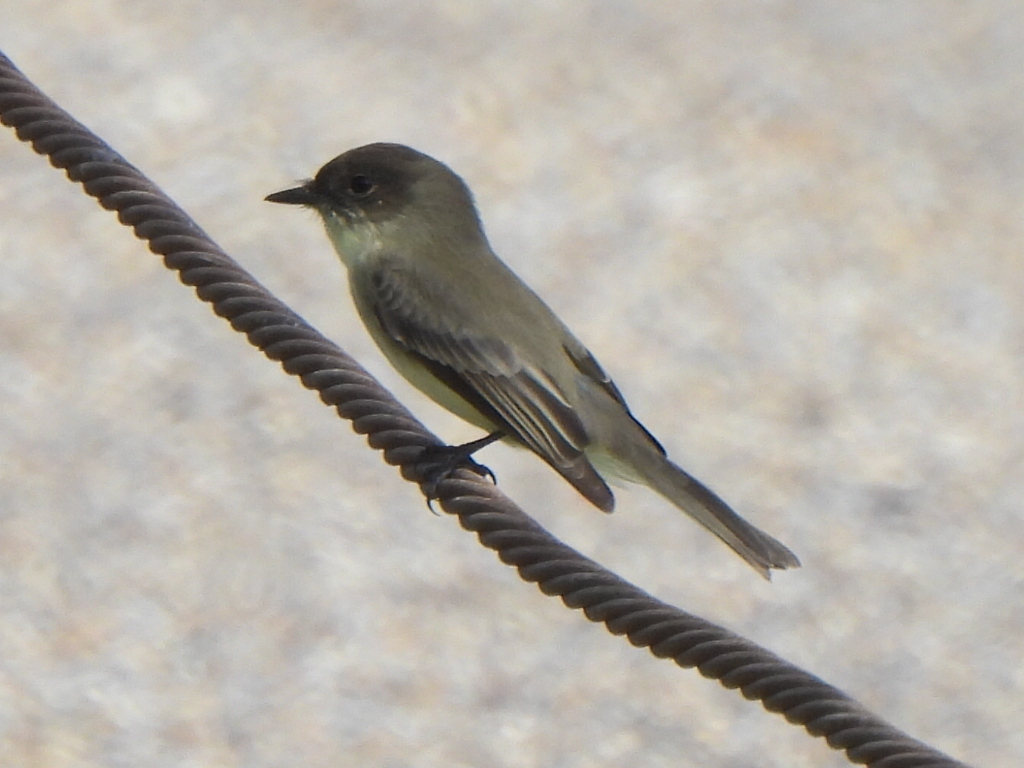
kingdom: Animalia
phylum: Chordata
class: Aves
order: Passeriformes
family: Tyrannidae
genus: Sayornis
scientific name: Sayornis phoebe
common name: Eastern phoebe
